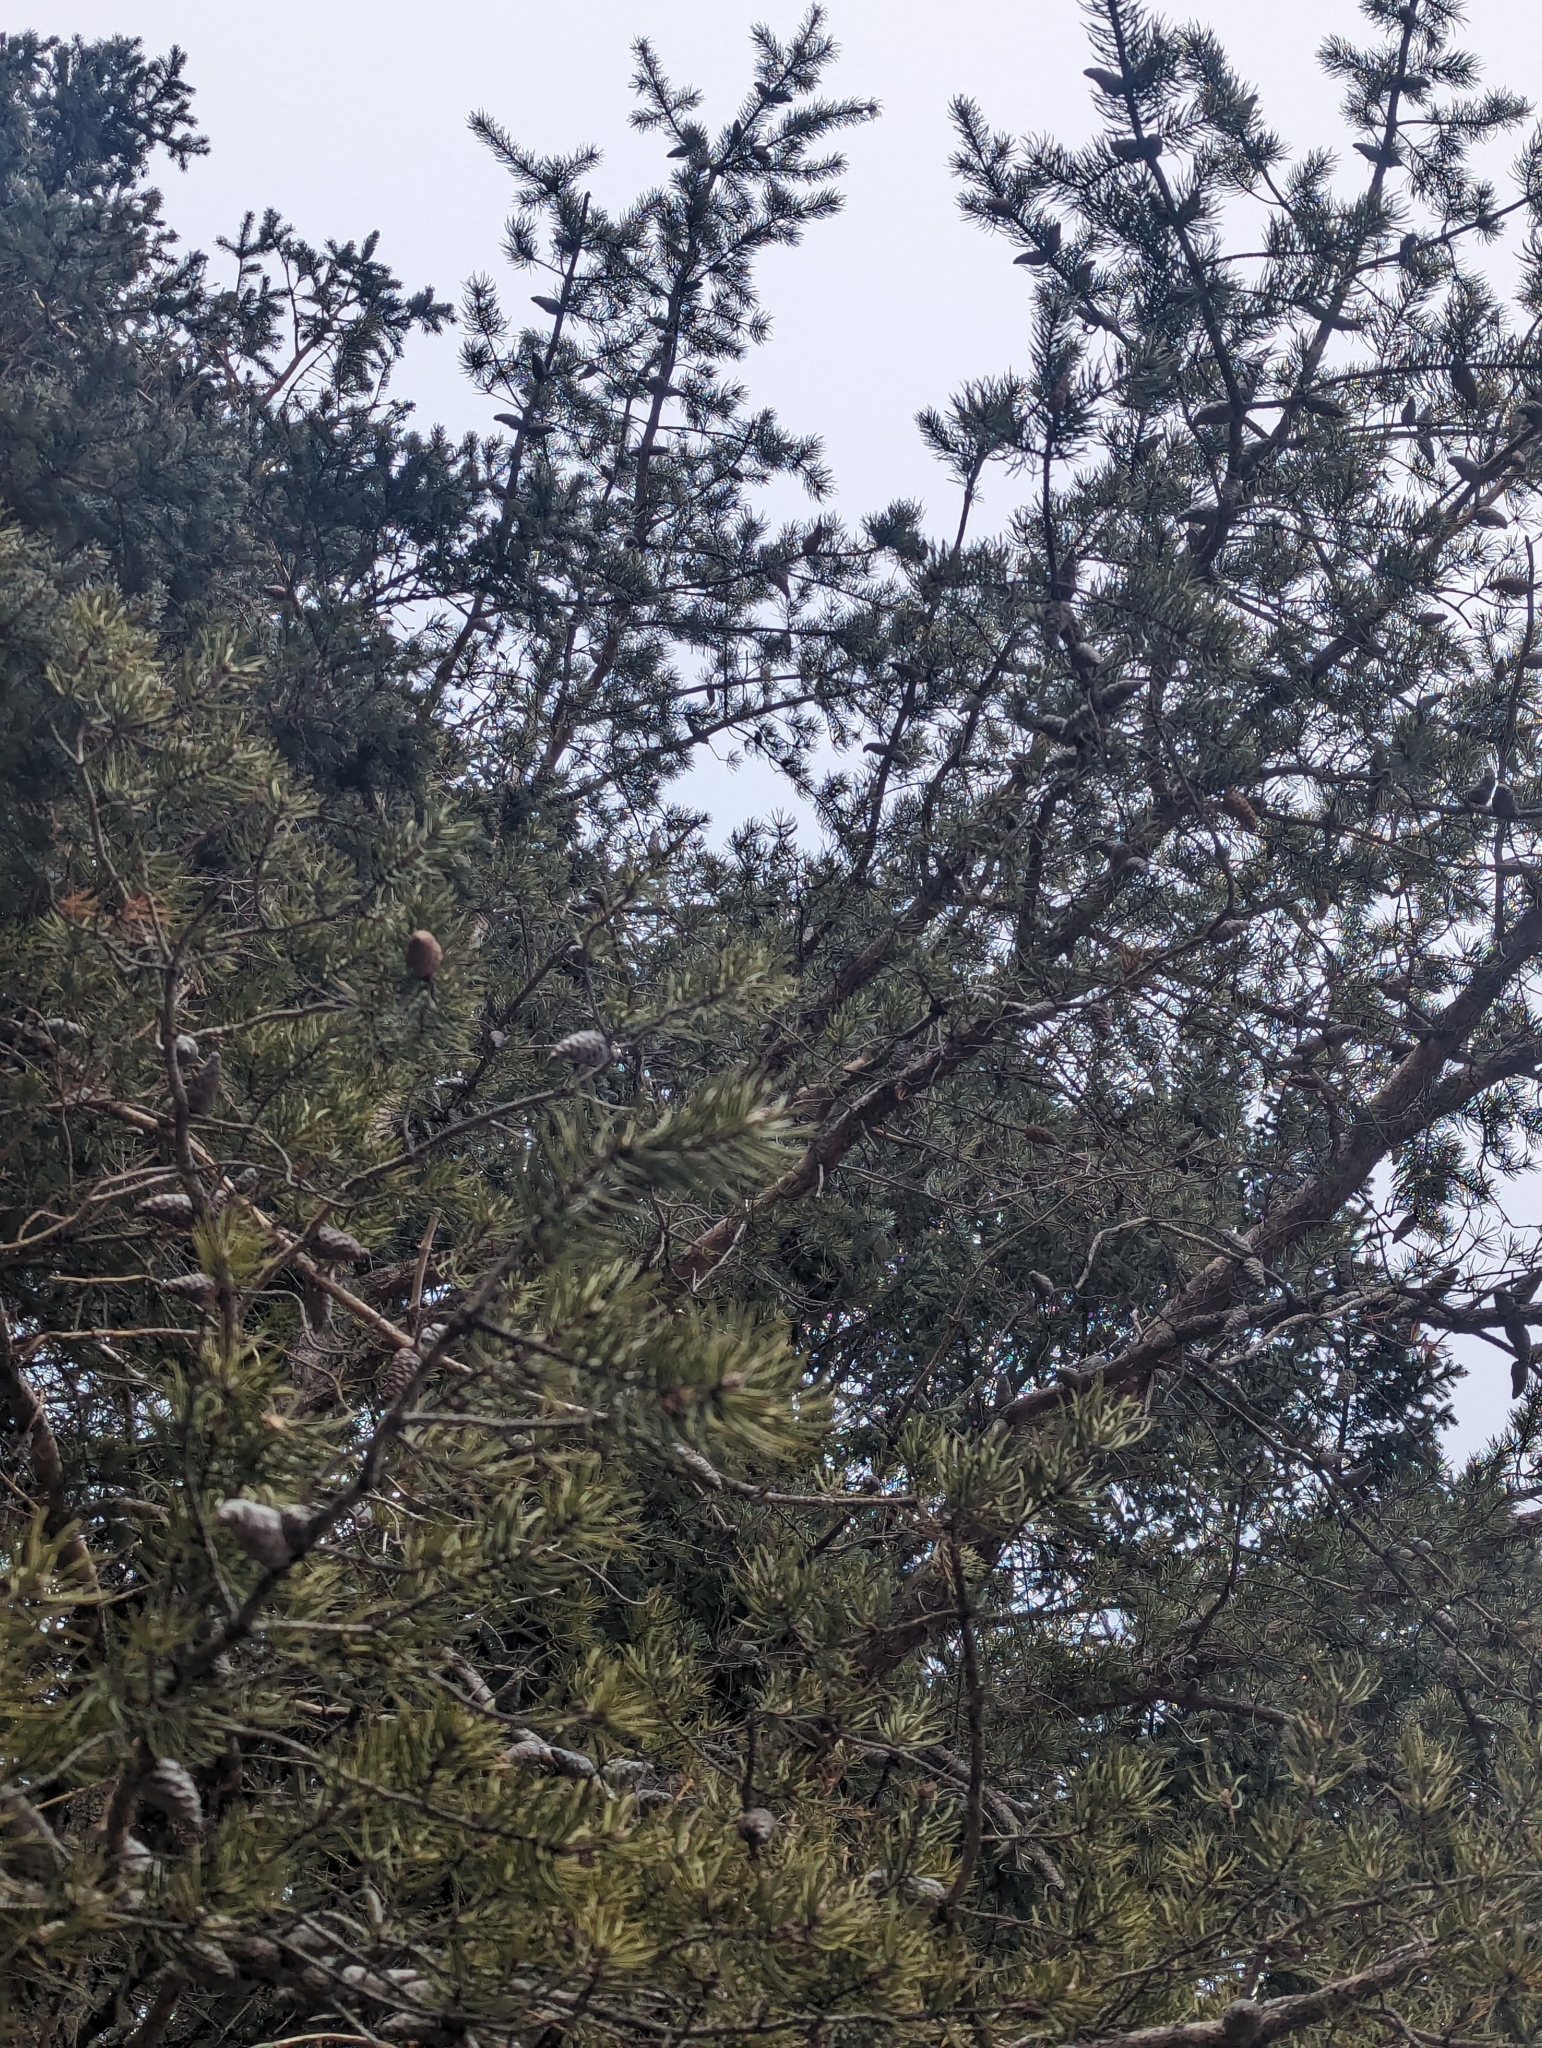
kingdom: Plantae
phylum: Tracheophyta
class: Pinopsida
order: Pinales
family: Pinaceae
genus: Pinus
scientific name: Pinus banksiana
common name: Jack pine
